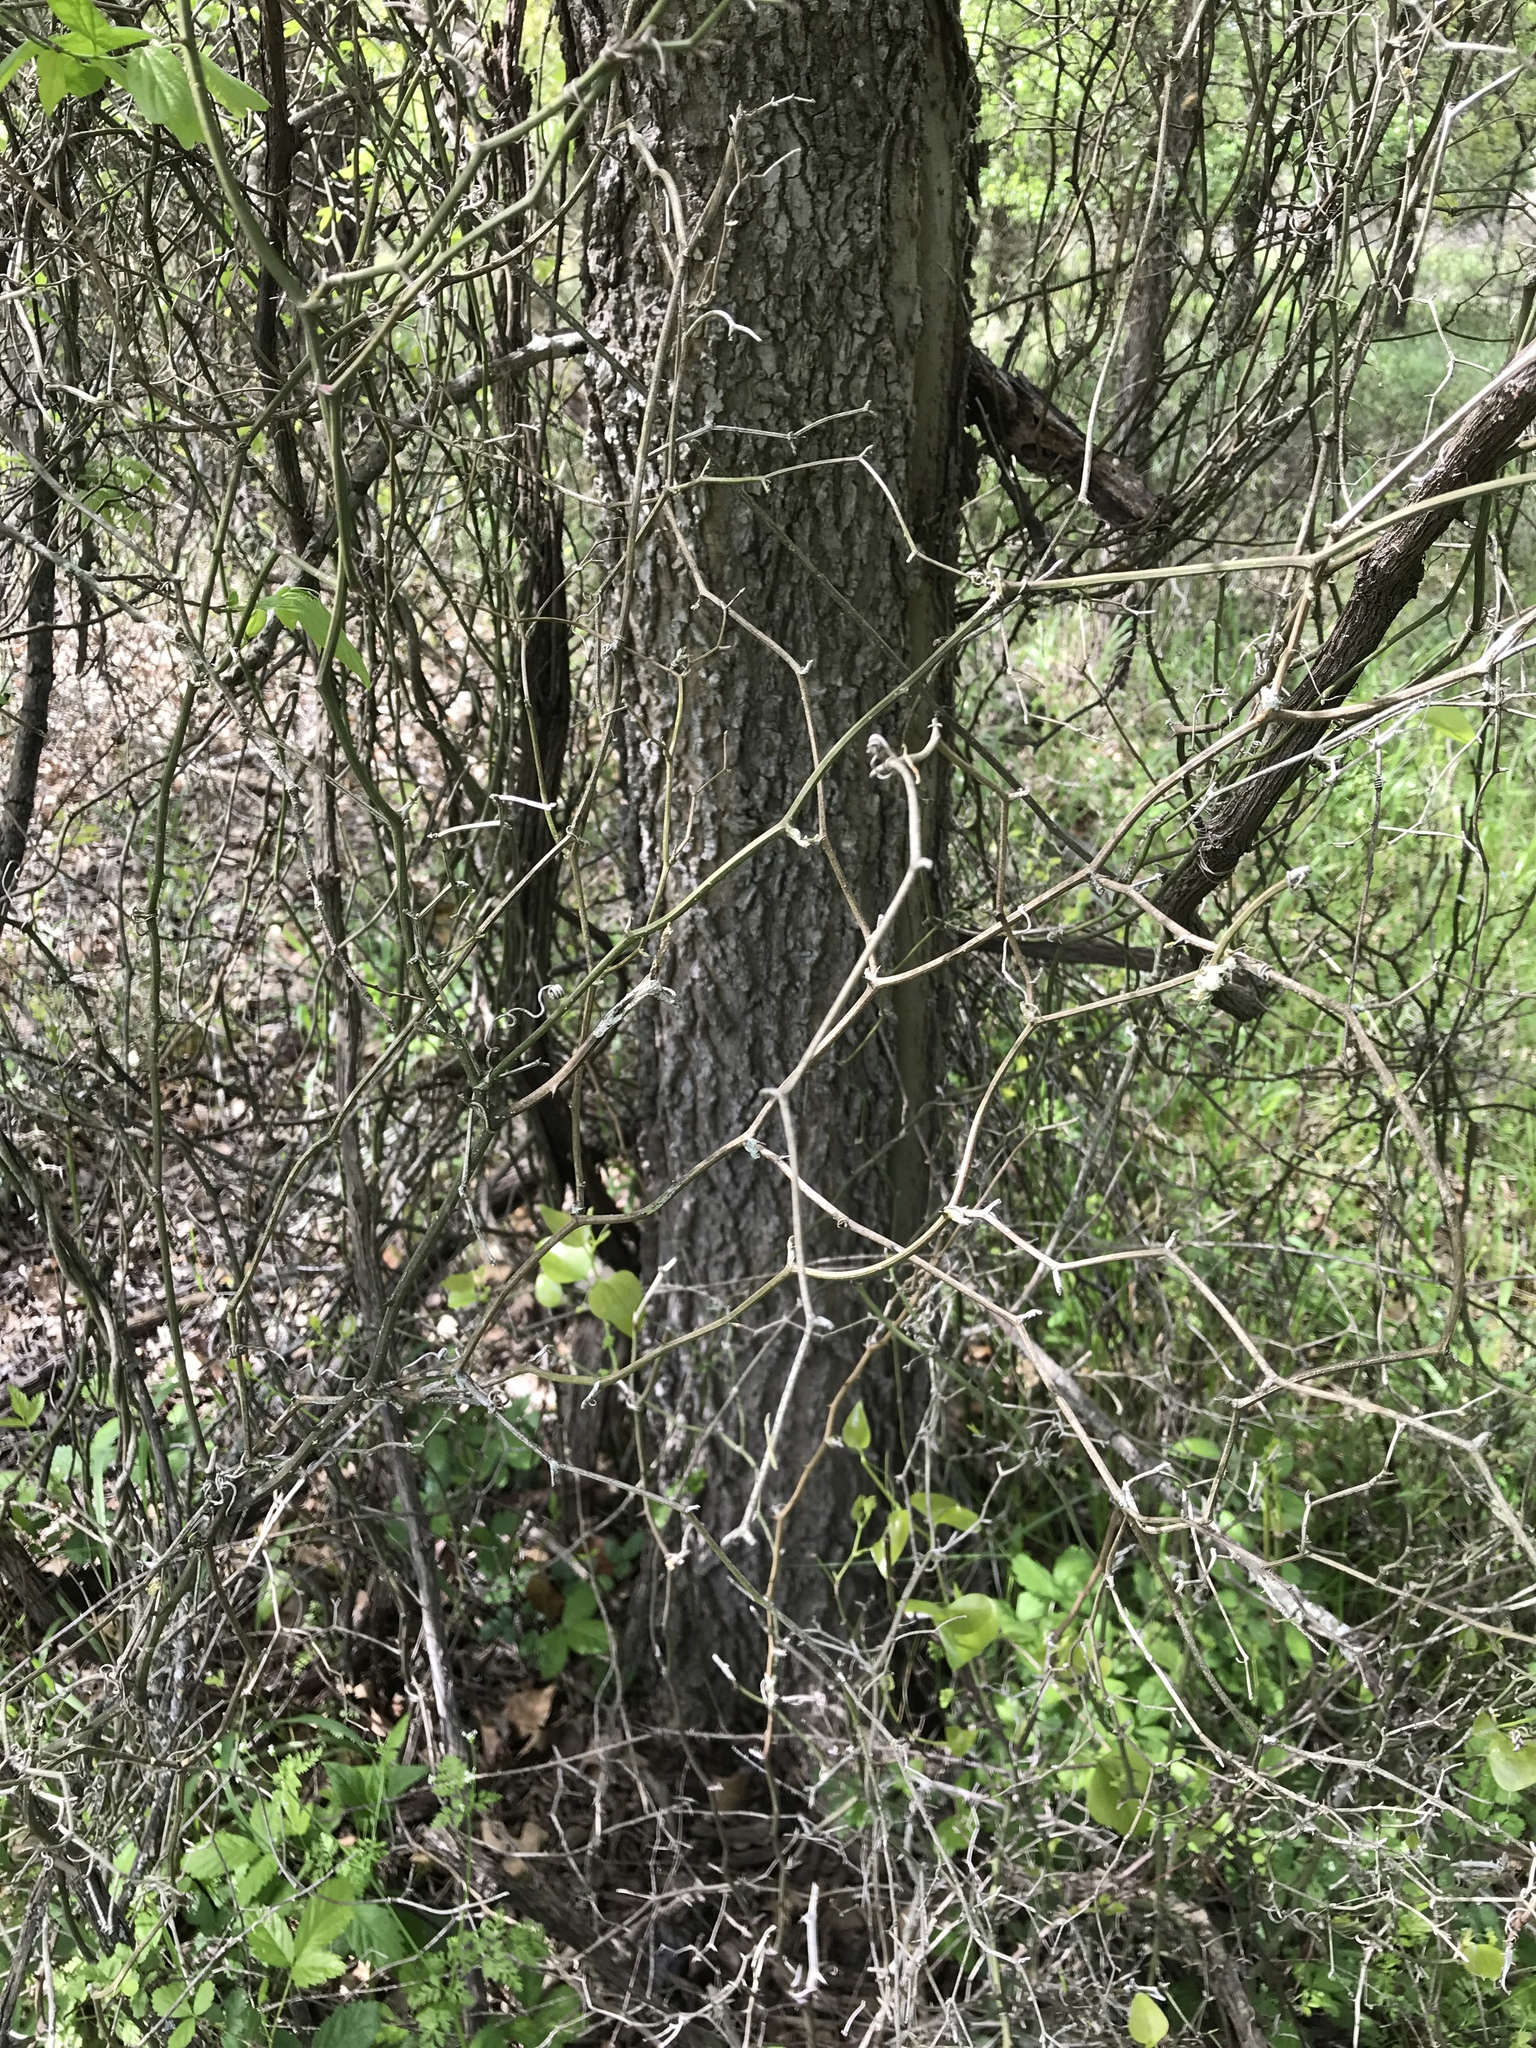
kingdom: Plantae
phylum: Tracheophyta
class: Magnoliopsida
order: Rosales
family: Cannabaceae
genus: Celtis
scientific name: Celtis laevigata
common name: Sugarberry
